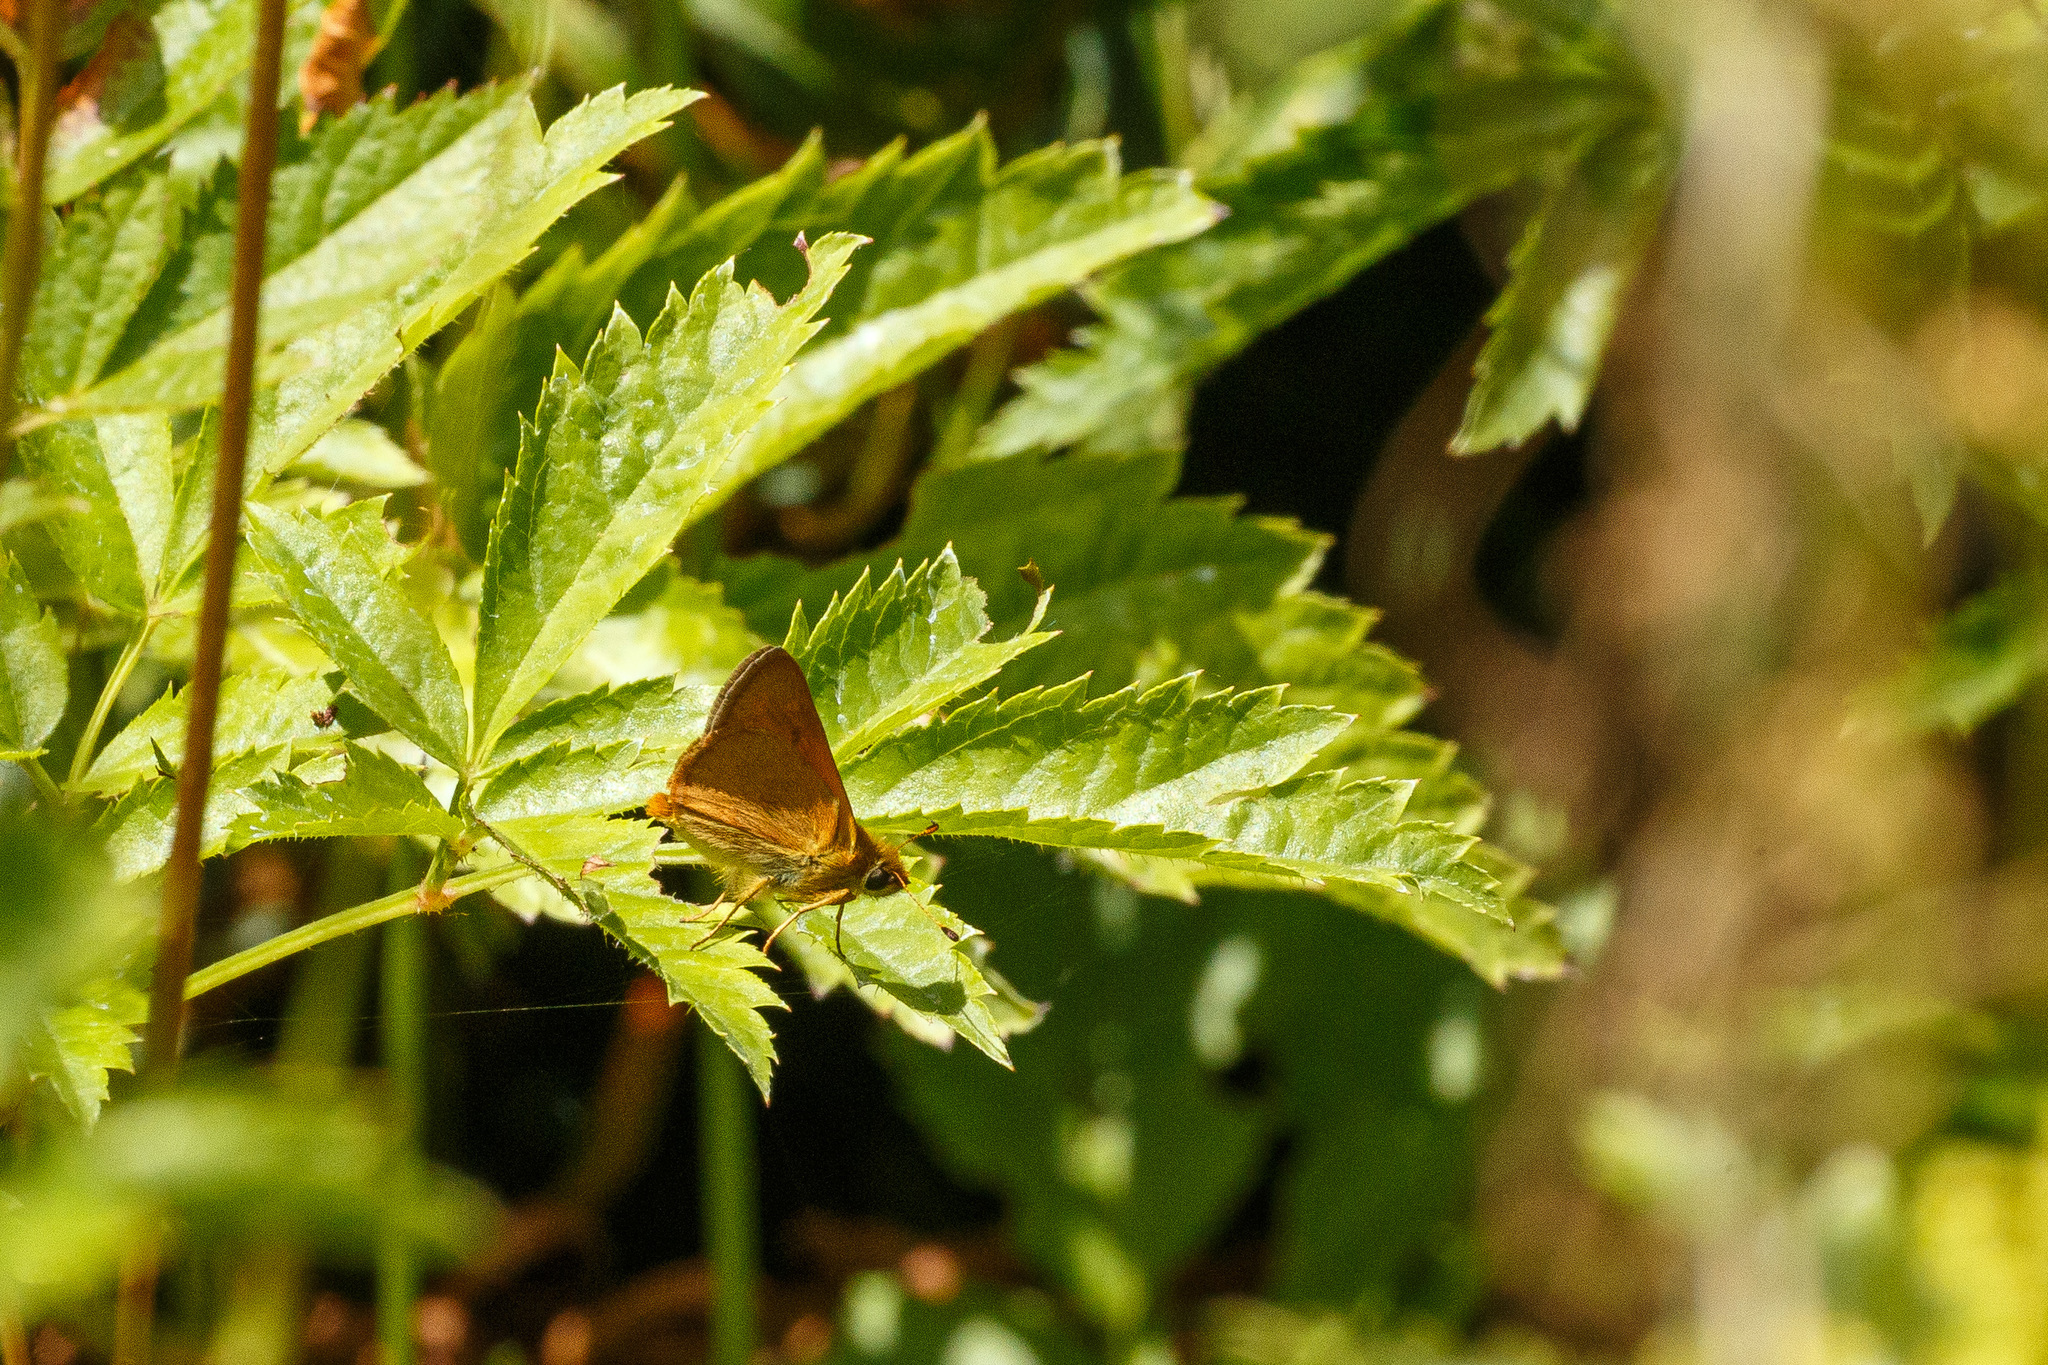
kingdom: Animalia
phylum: Arthropoda
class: Insecta
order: Lepidoptera
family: Hesperiidae
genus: Ochlodes
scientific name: Ochlodes sylvanoides
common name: Woodland skipper
